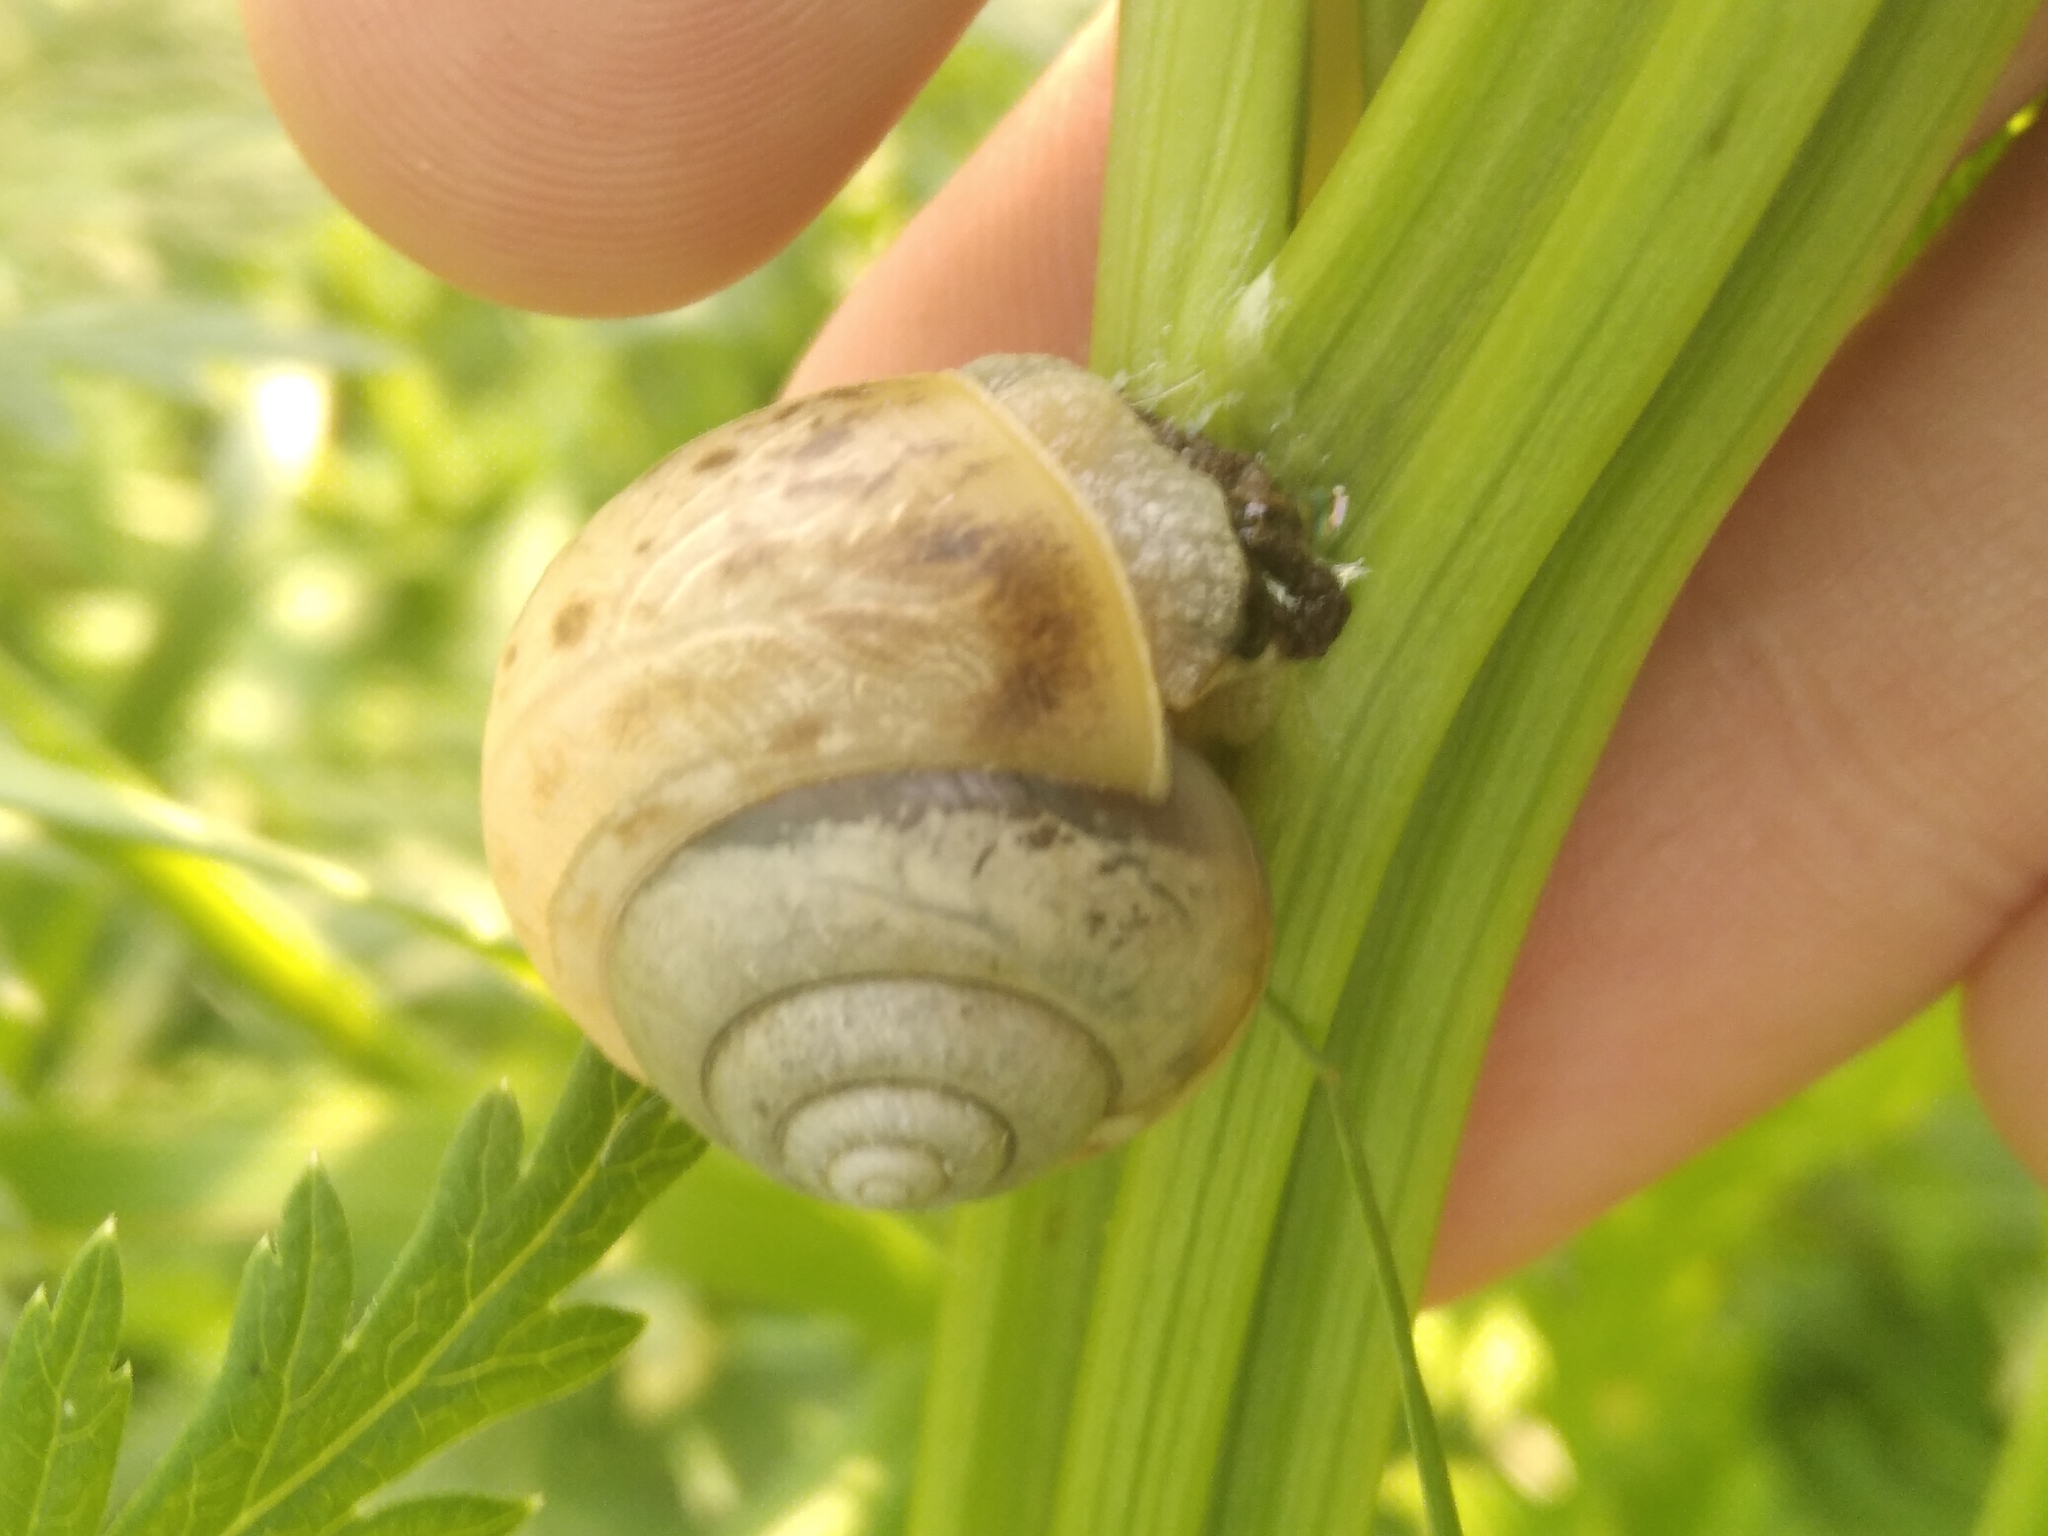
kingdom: Animalia
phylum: Mollusca
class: Gastropoda
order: Stylommatophora
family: Camaenidae
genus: Fruticicola
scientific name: Fruticicola fruticum
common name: Bush snail
